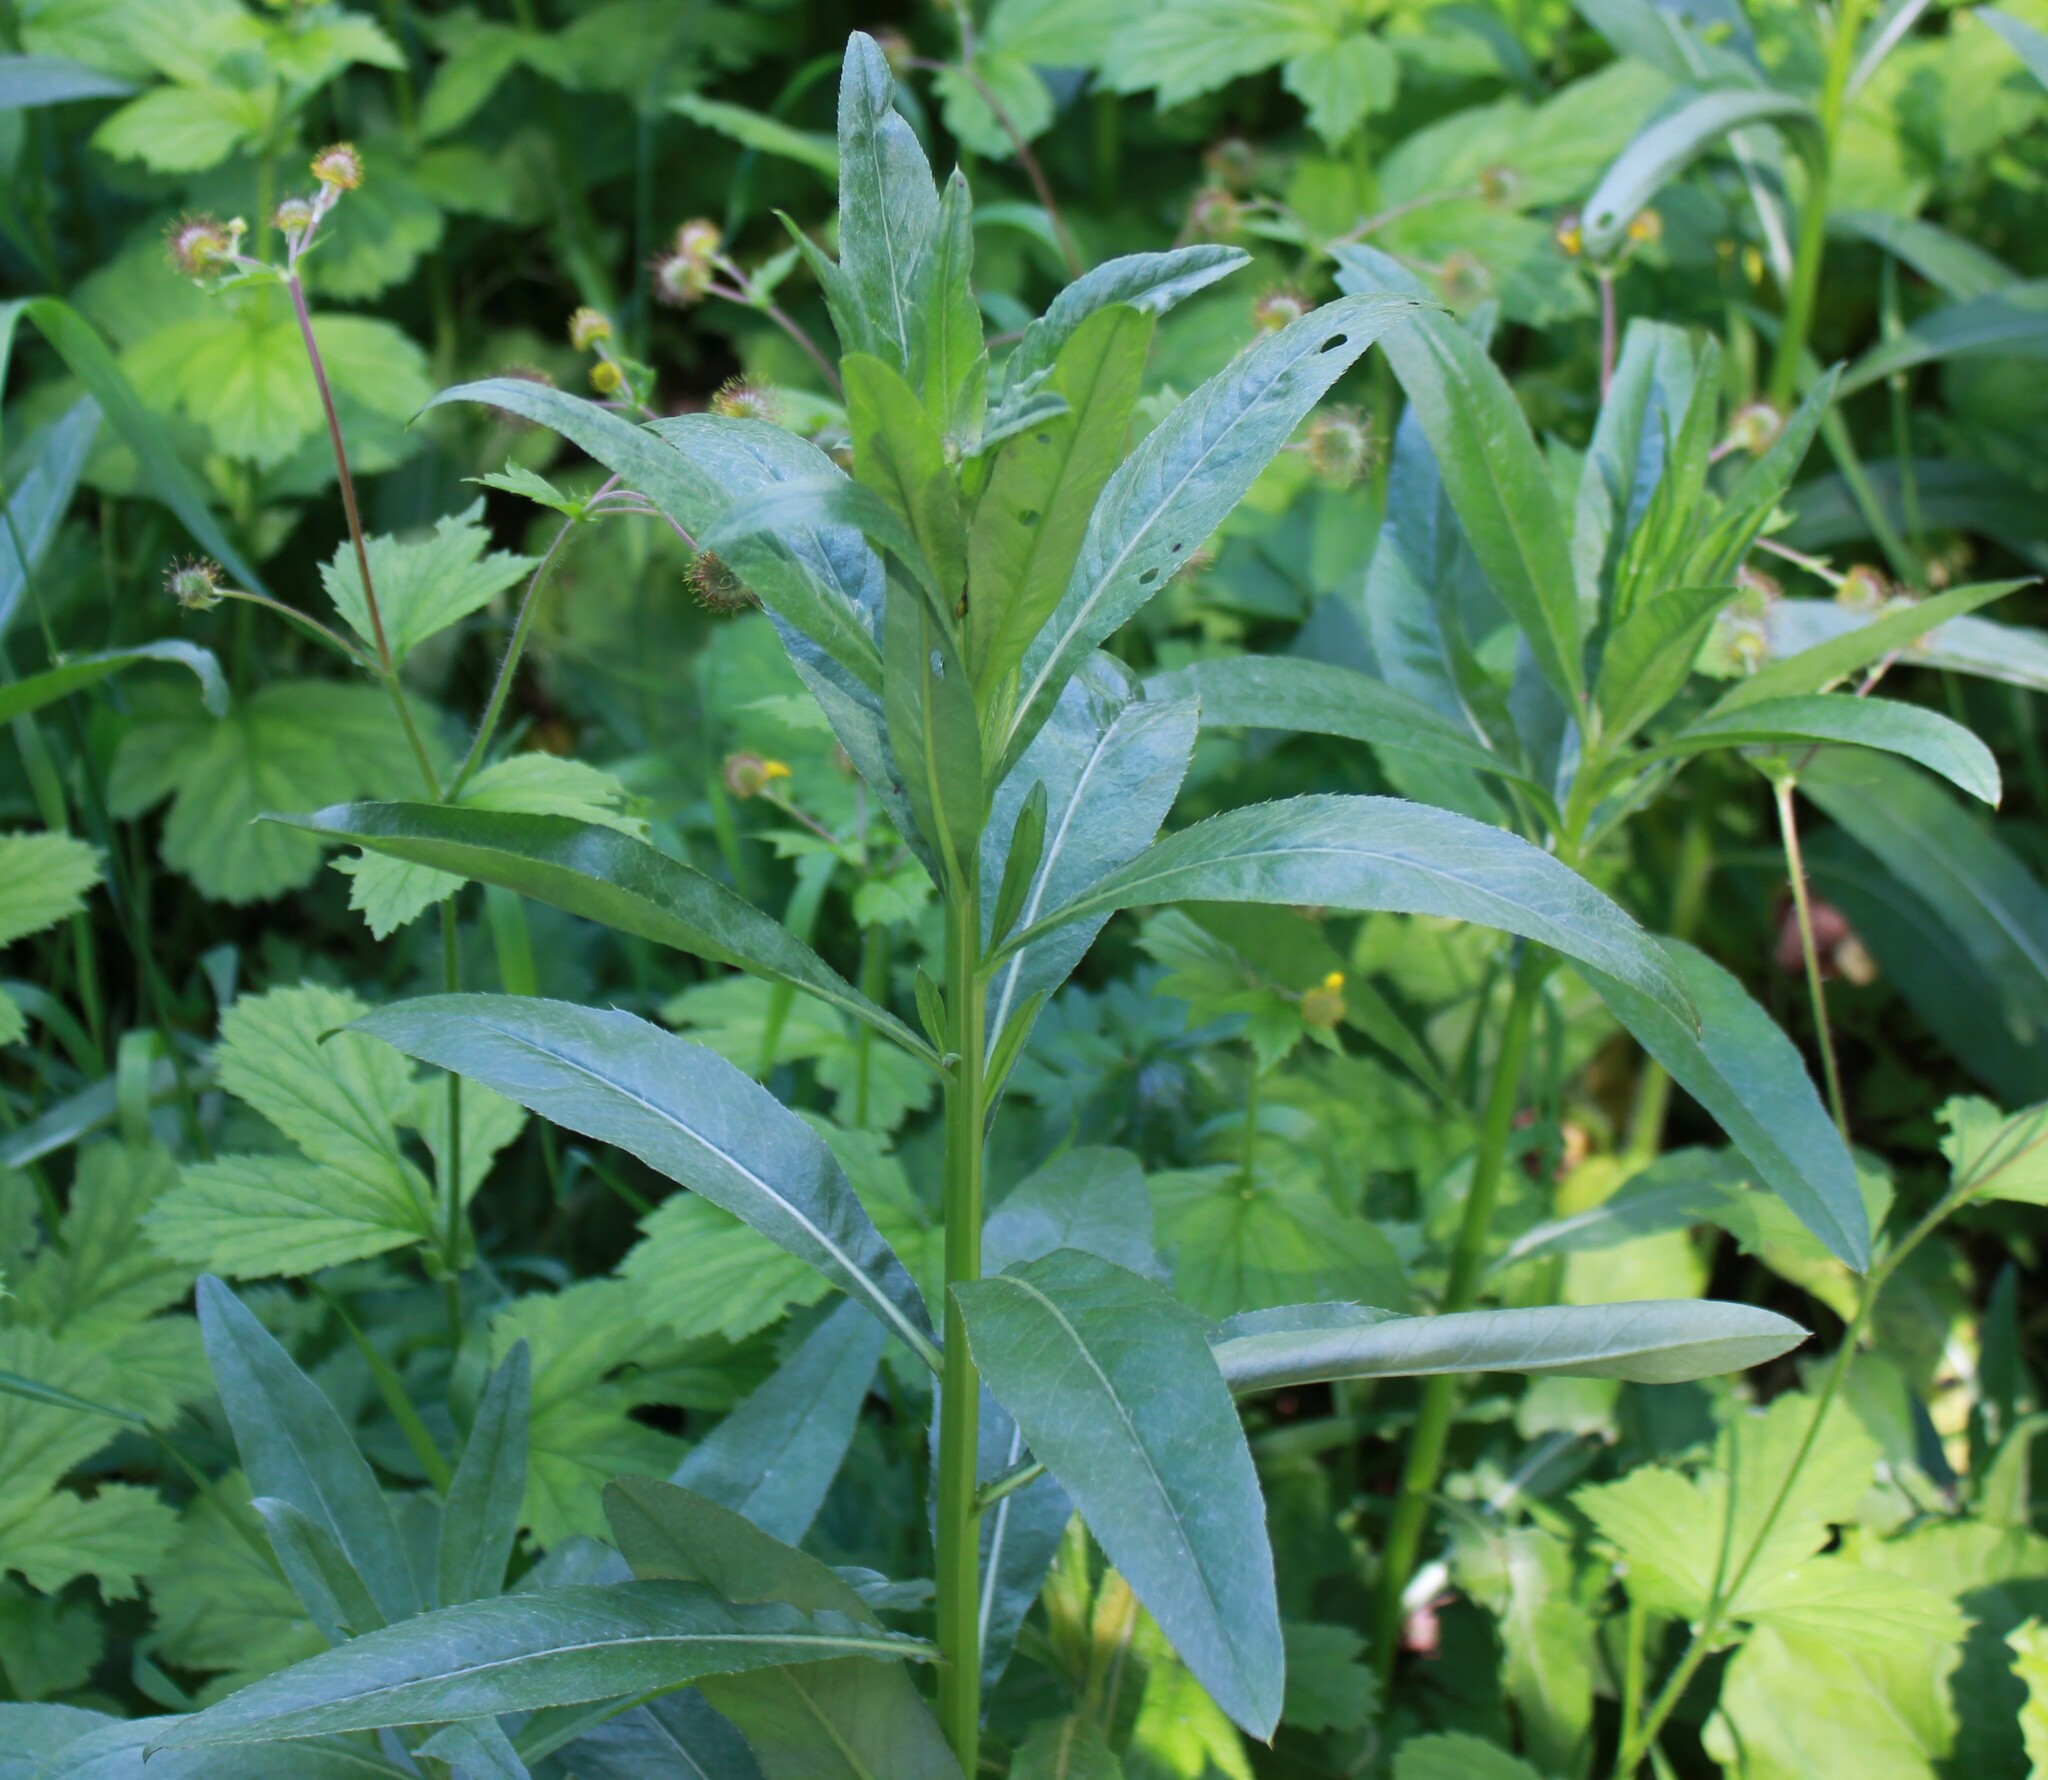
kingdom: Plantae
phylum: Tracheophyta
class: Magnoliopsida
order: Asterales
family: Asteraceae
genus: Cirsium
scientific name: Cirsium arvense
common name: Creeping thistle
